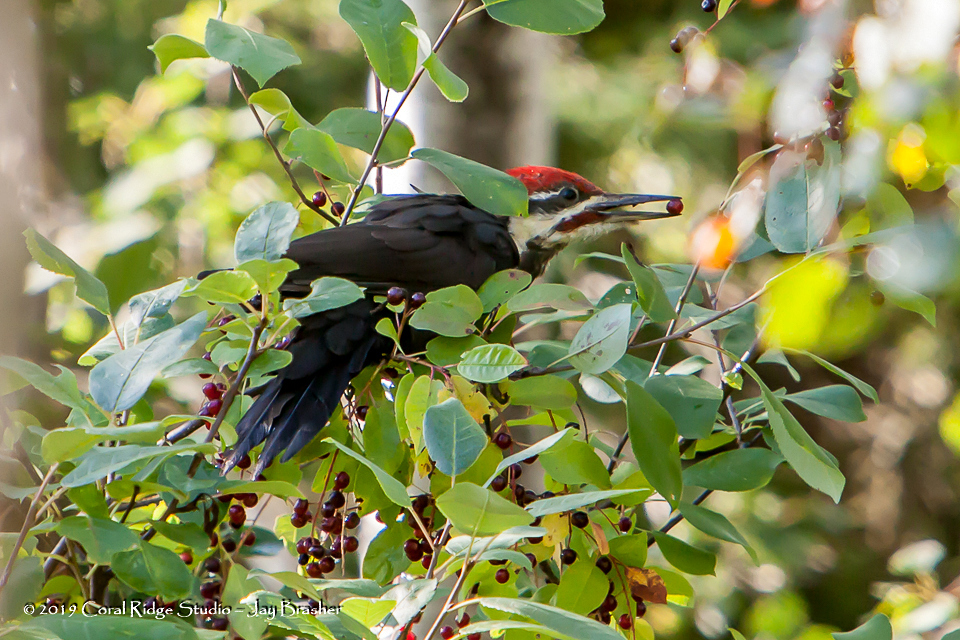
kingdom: Animalia
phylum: Chordata
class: Aves
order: Piciformes
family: Picidae
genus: Dryocopus
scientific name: Dryocopus pileatus
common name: Pileated woodpecker
